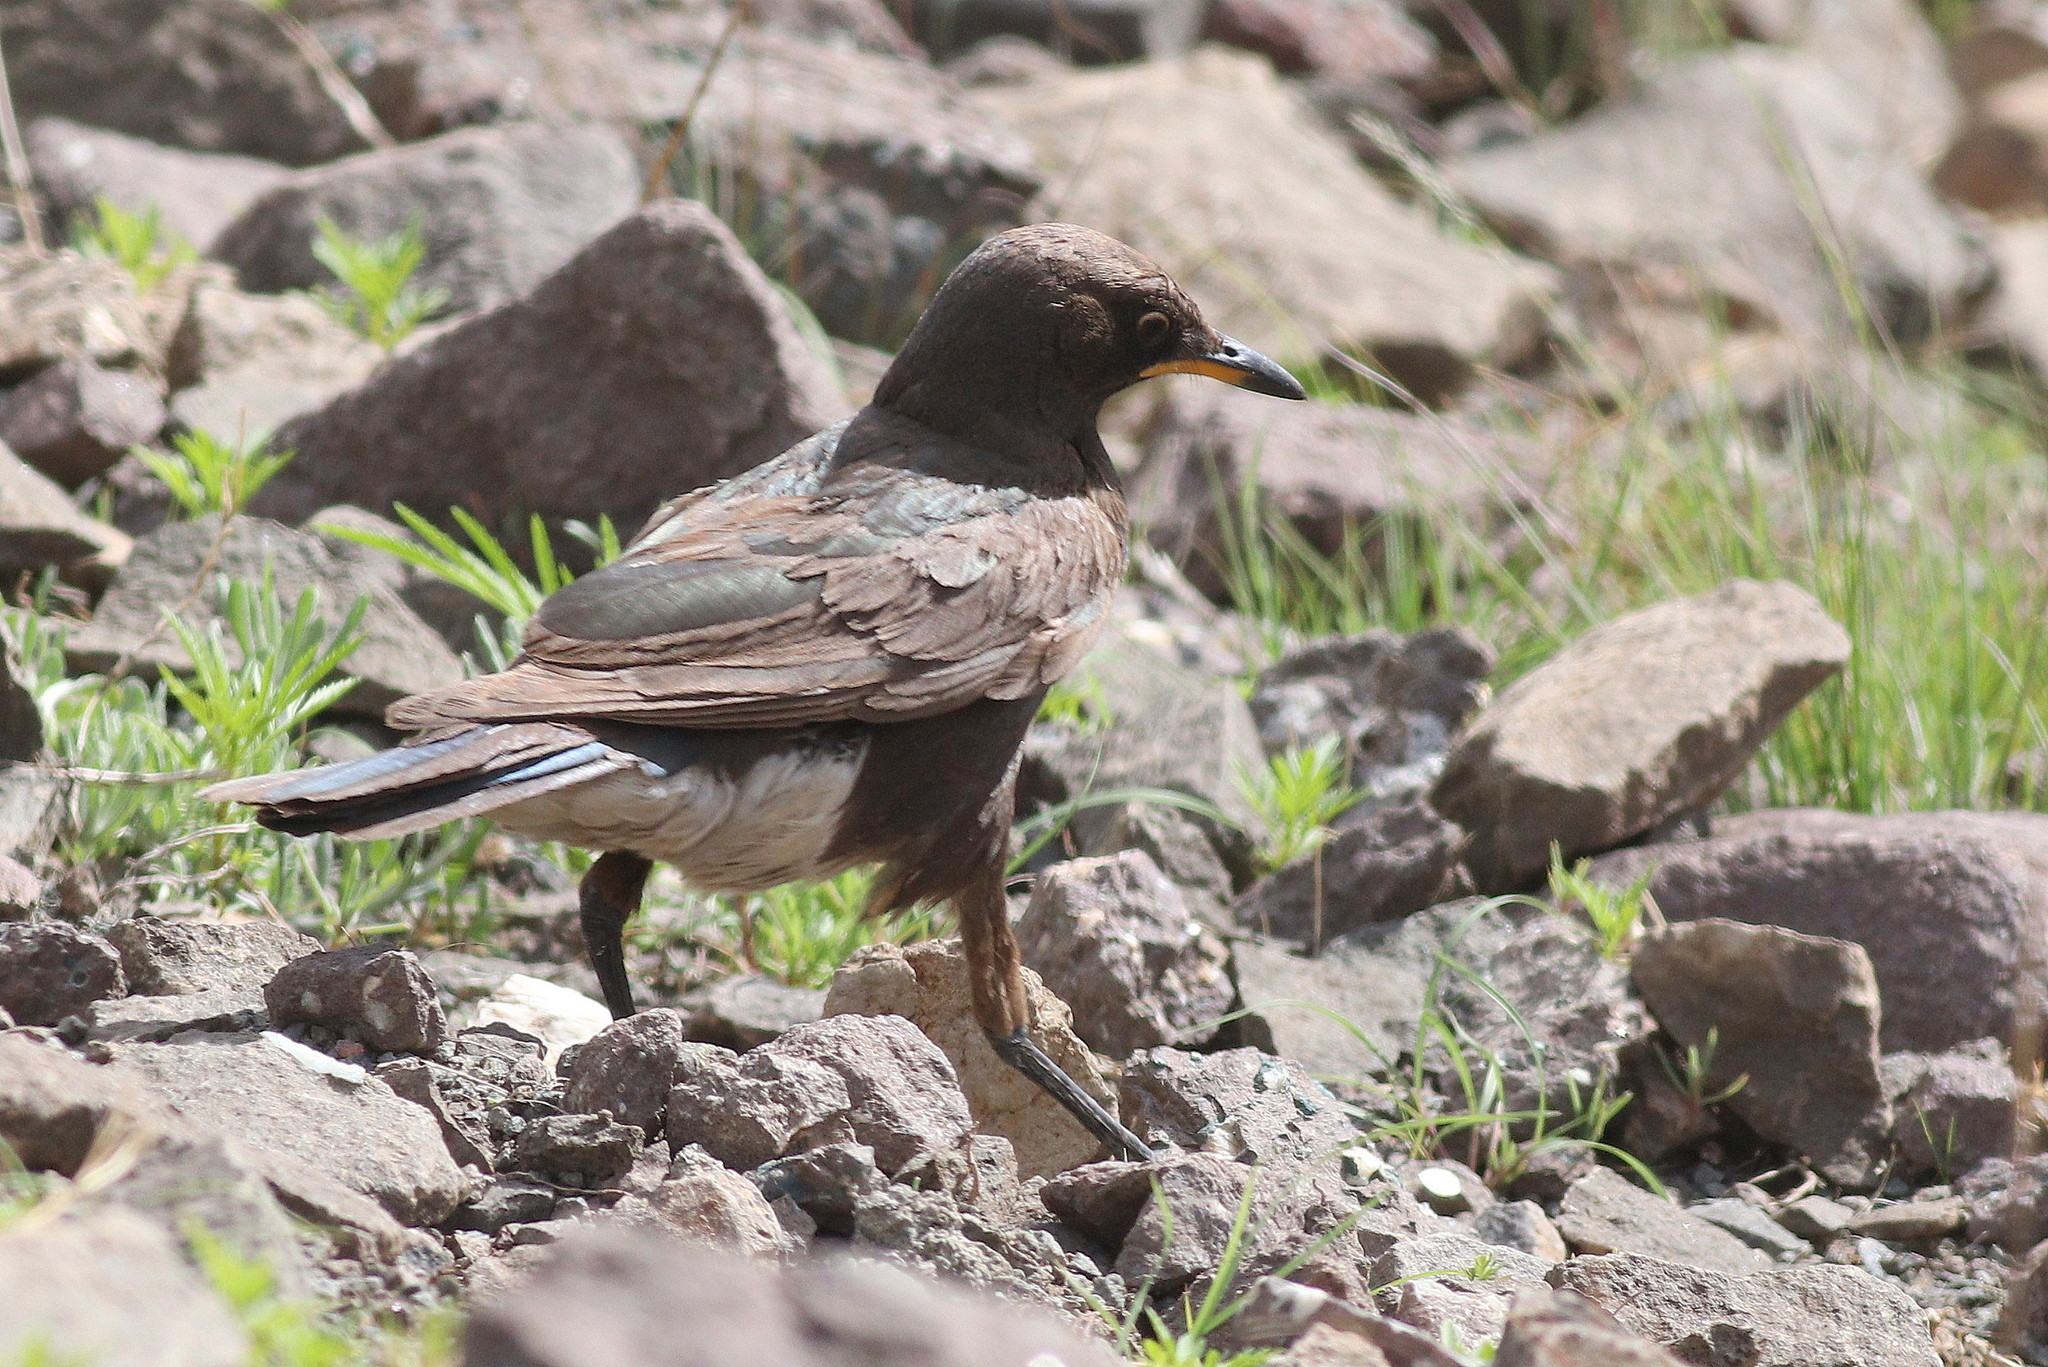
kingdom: Animalia
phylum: Chordata
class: Aves
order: Passeriformes
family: Sturnidae
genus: Lamprotornis
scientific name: Lamprotornis bicolor
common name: Pied starling
